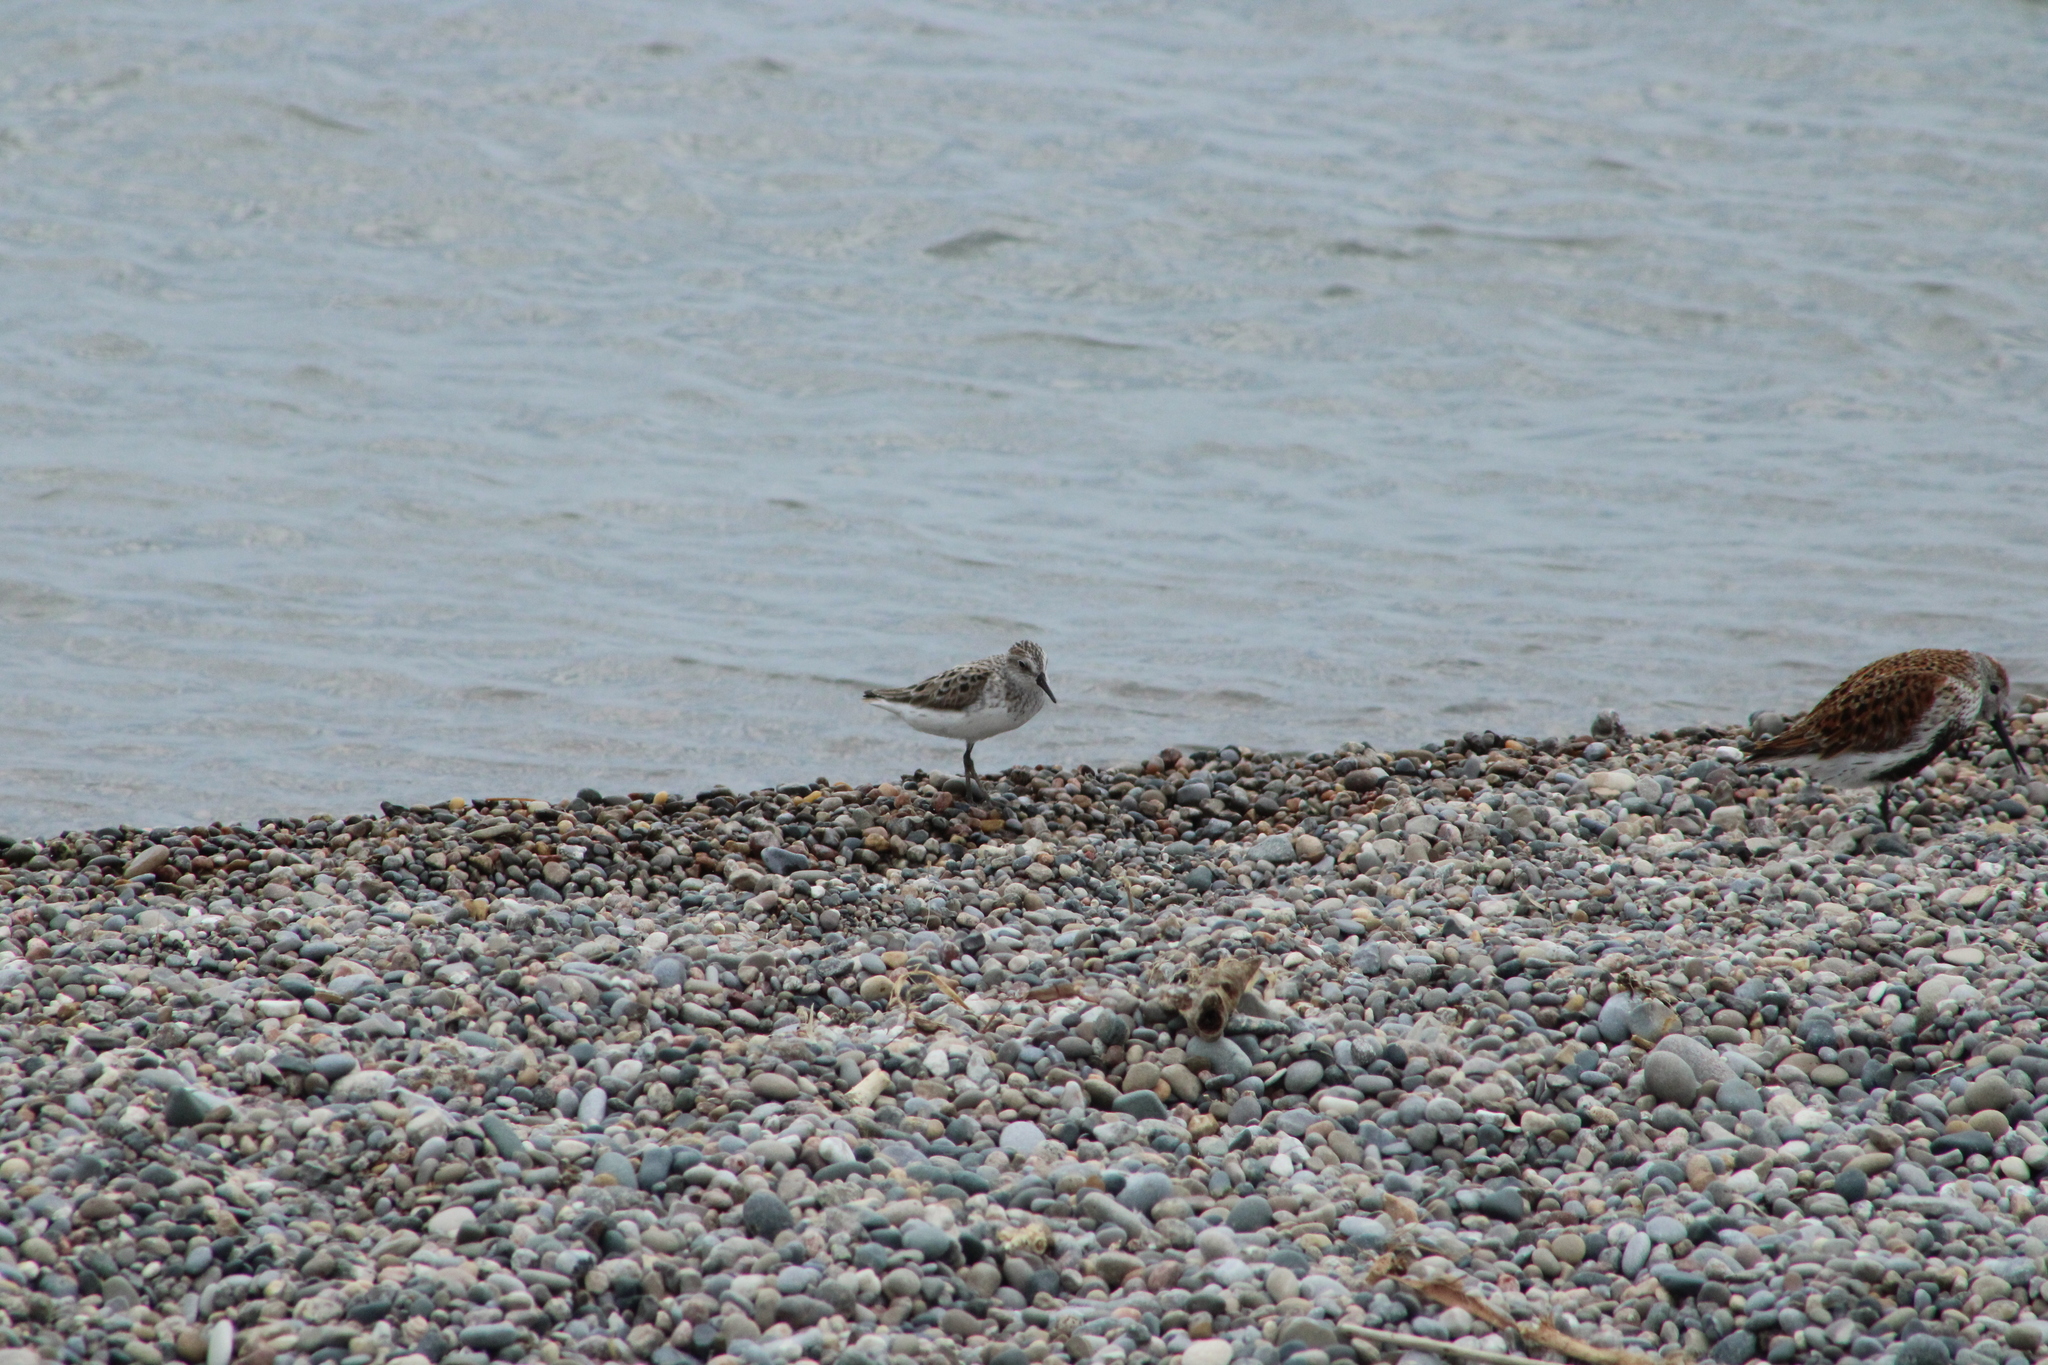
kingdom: Animalia
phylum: Chordata
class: Aves
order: Charadriiformes
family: Scolopacidae
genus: Calidris
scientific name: Calidris minutilla
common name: Least sandpiper
